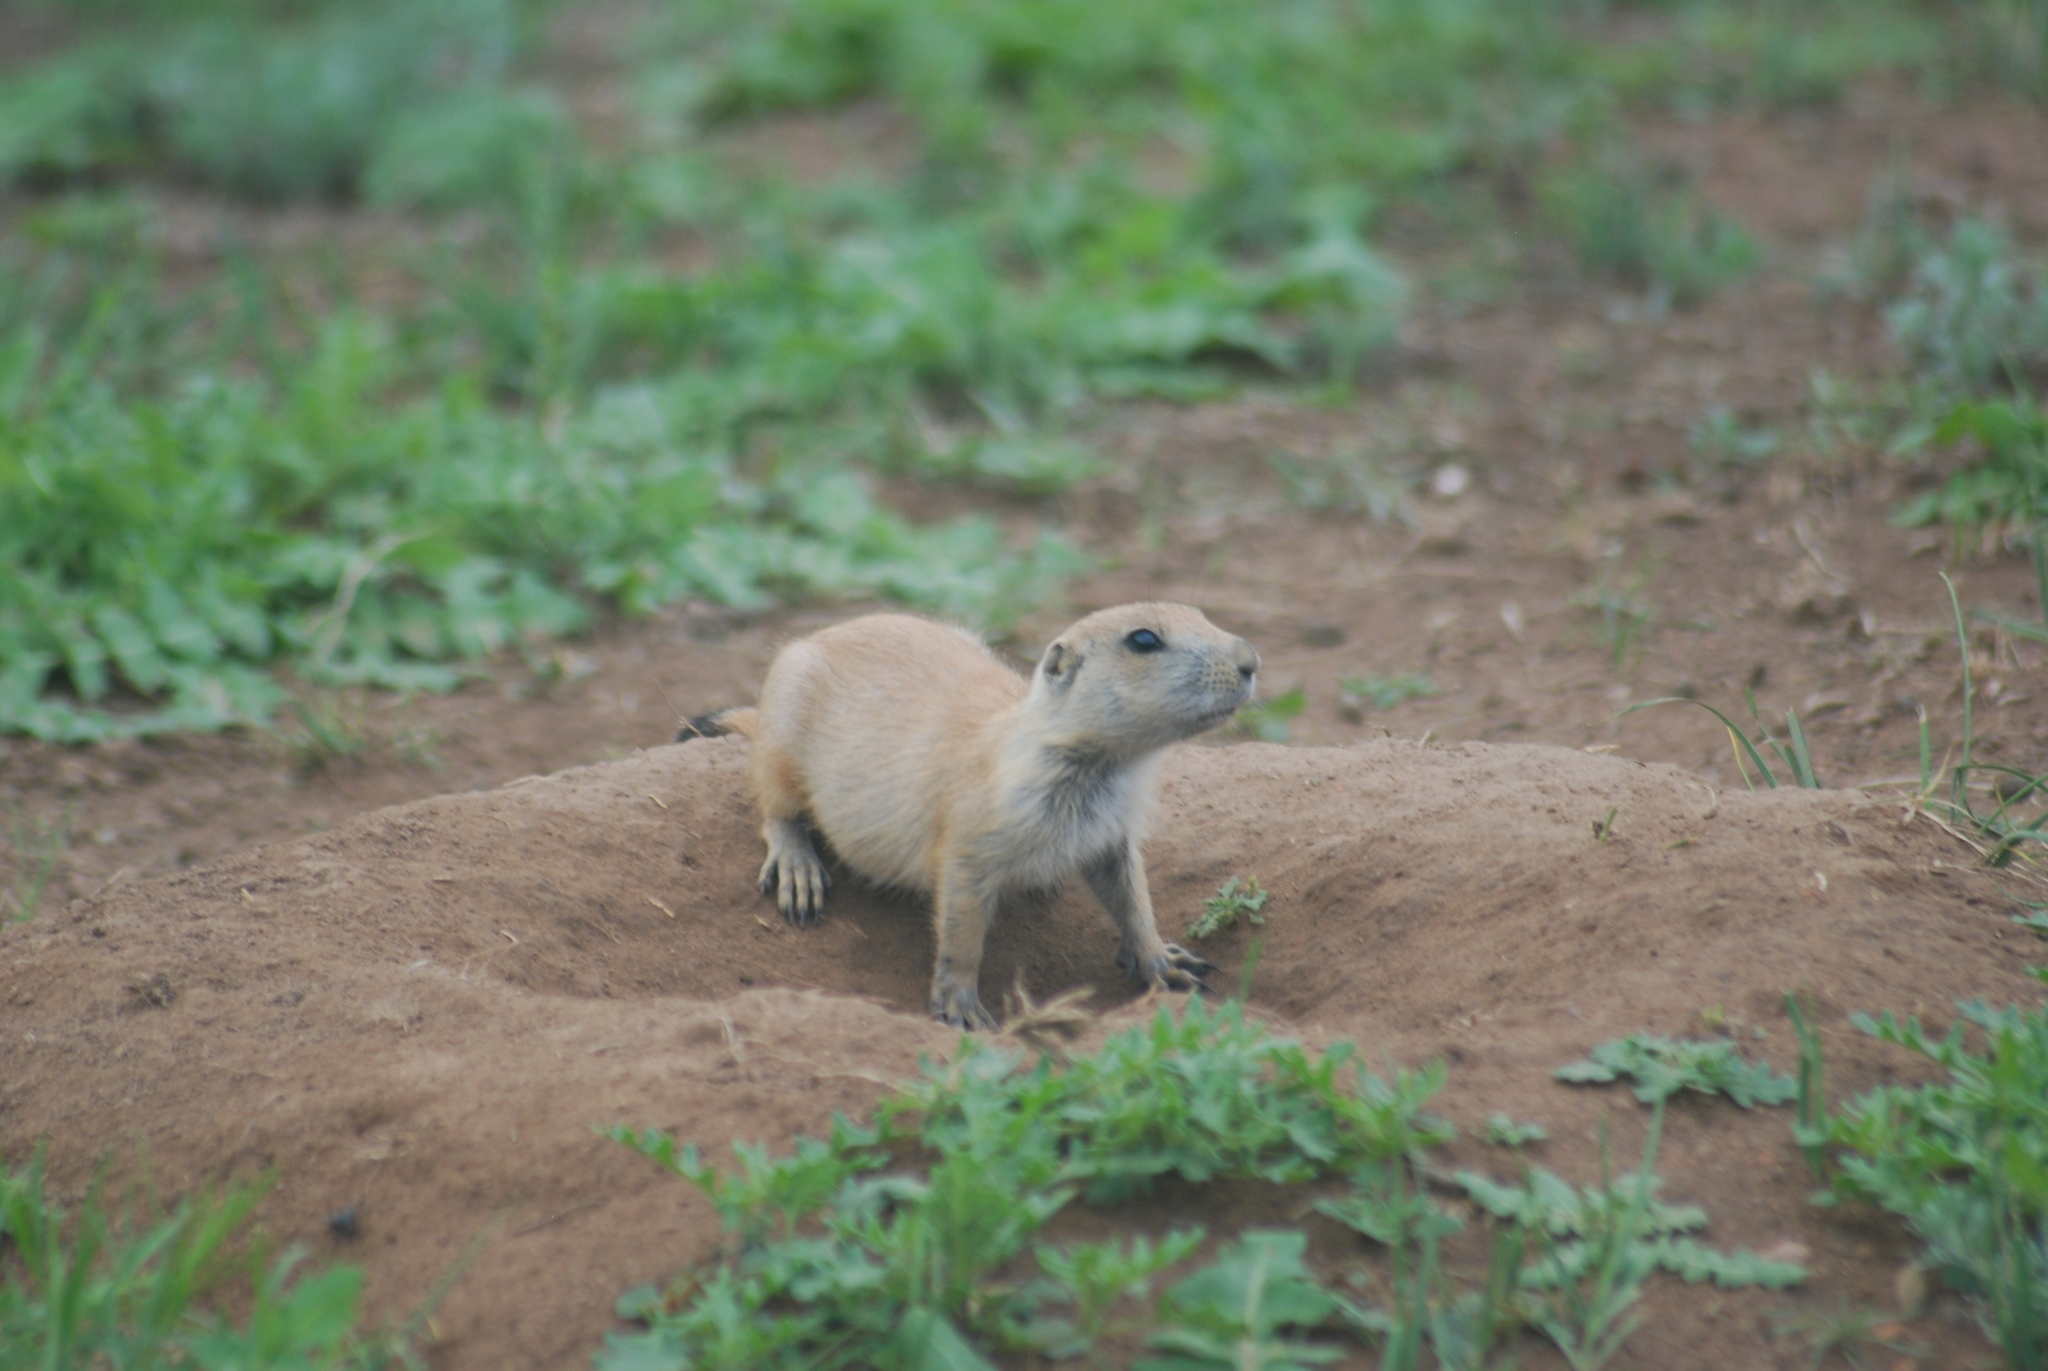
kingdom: Animalia
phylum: Chordata
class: Mammalia
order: Rodentia
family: Sciuridae
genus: Cynomys
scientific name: Cynomys ludovicianus
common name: Black-tailed prairie dog
